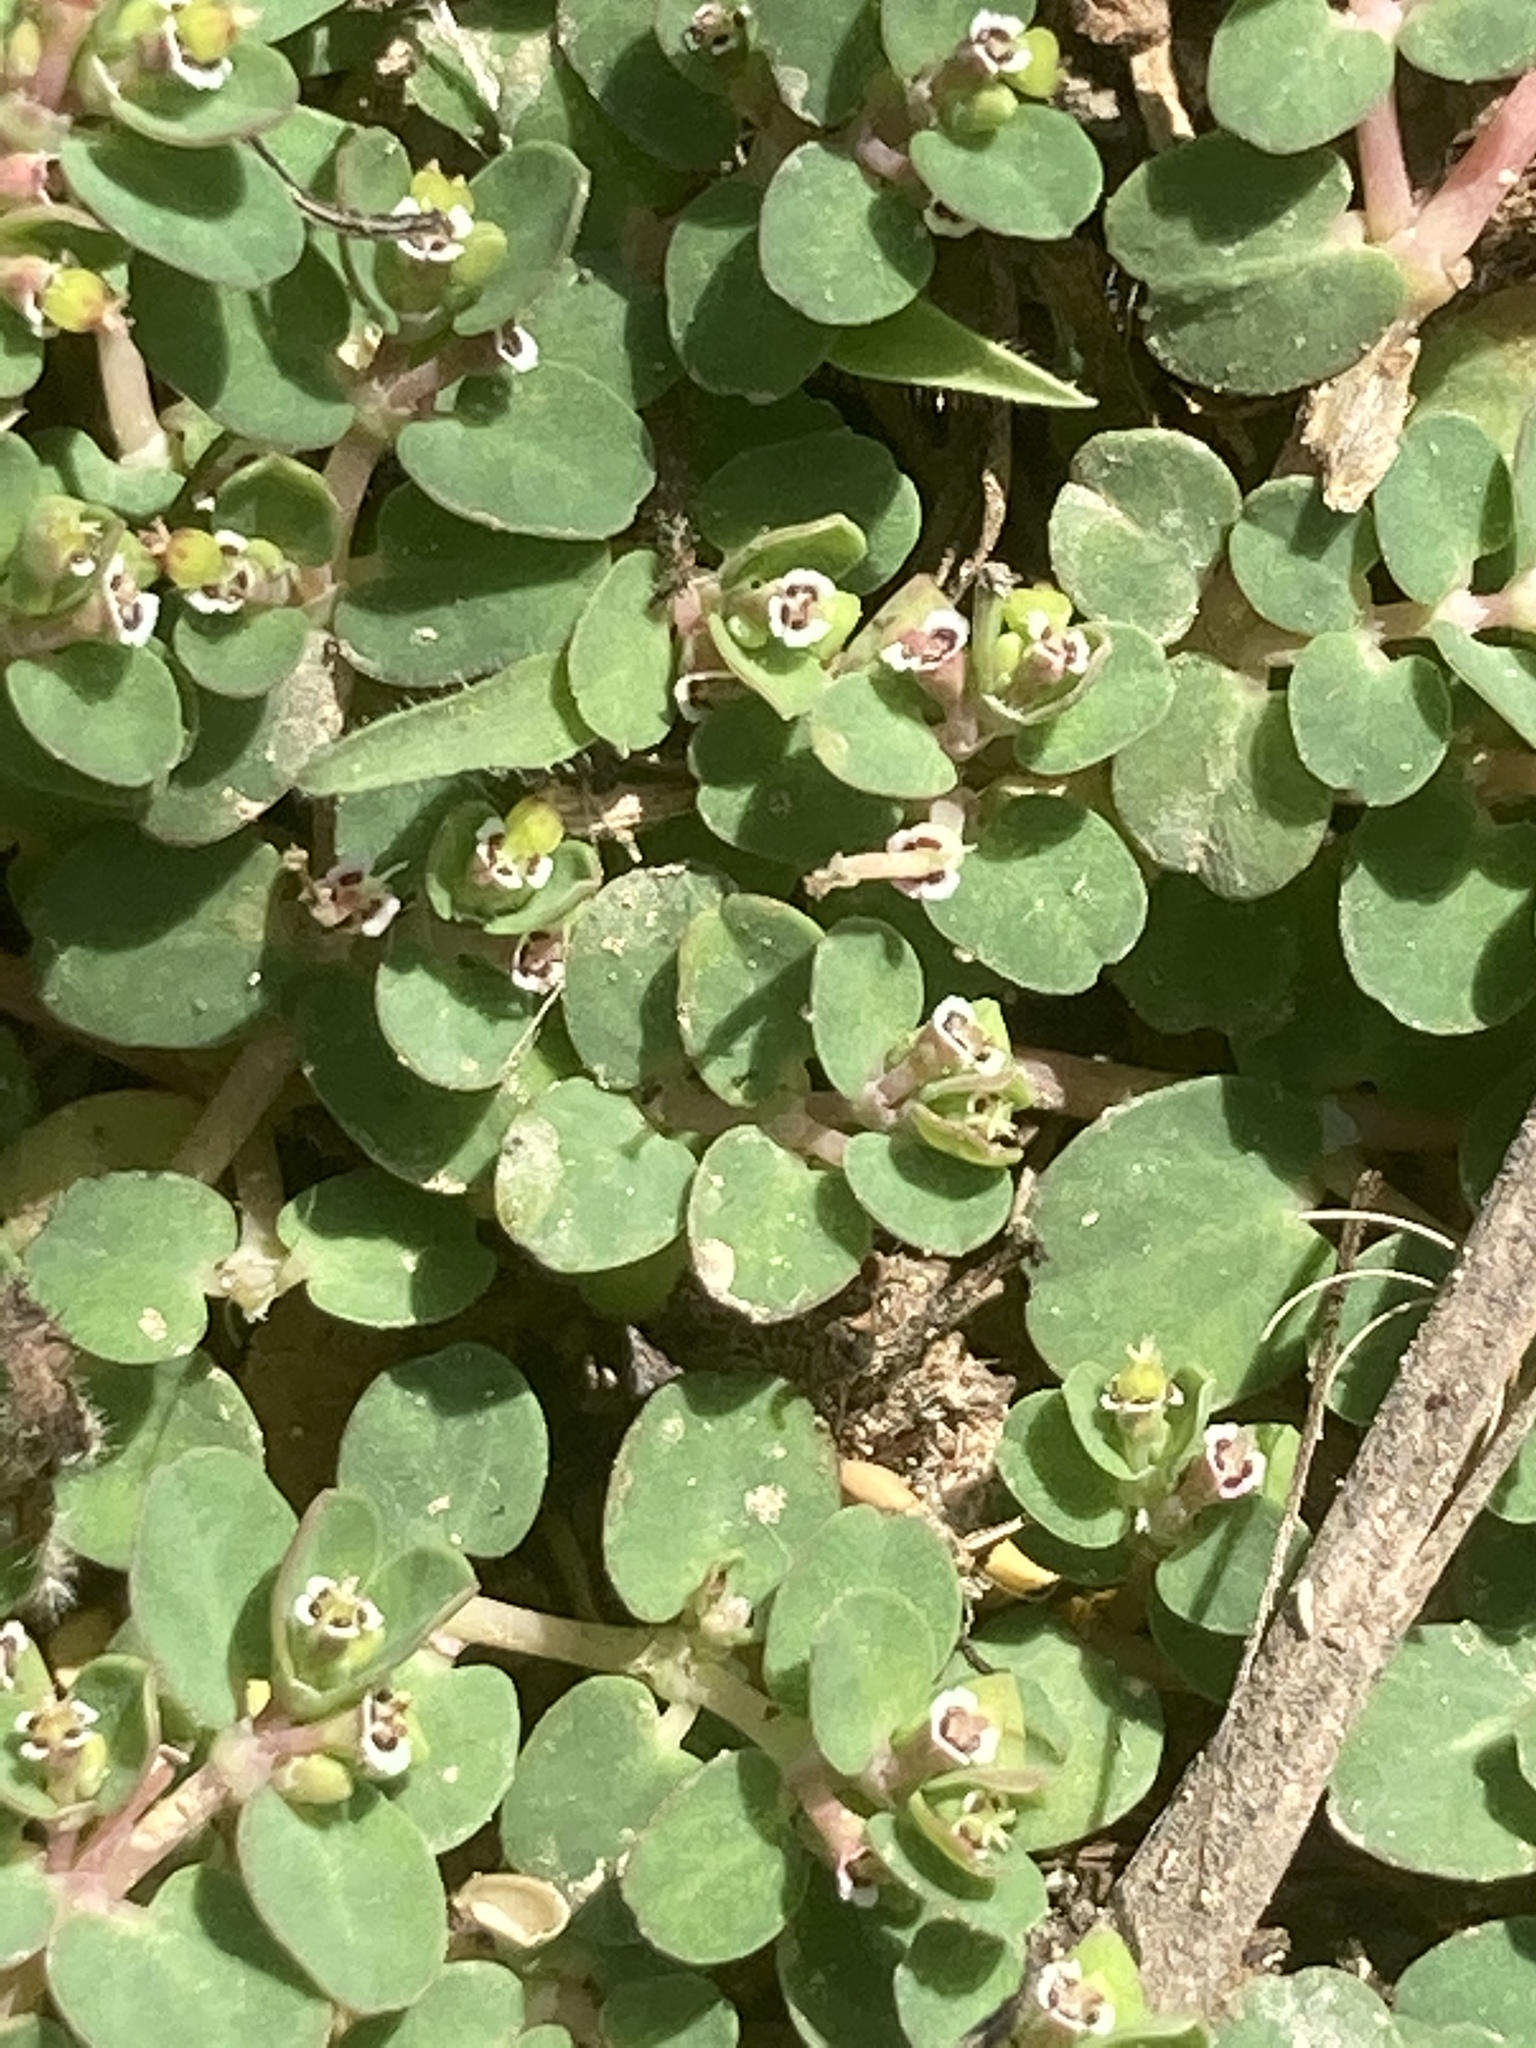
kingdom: Plantae
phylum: Tracheophyta
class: Magnoliopsida
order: Malpighiales
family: Euphorbiaceae
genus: Euphorbia
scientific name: Euphorbia serpens
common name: Matted sandmat
